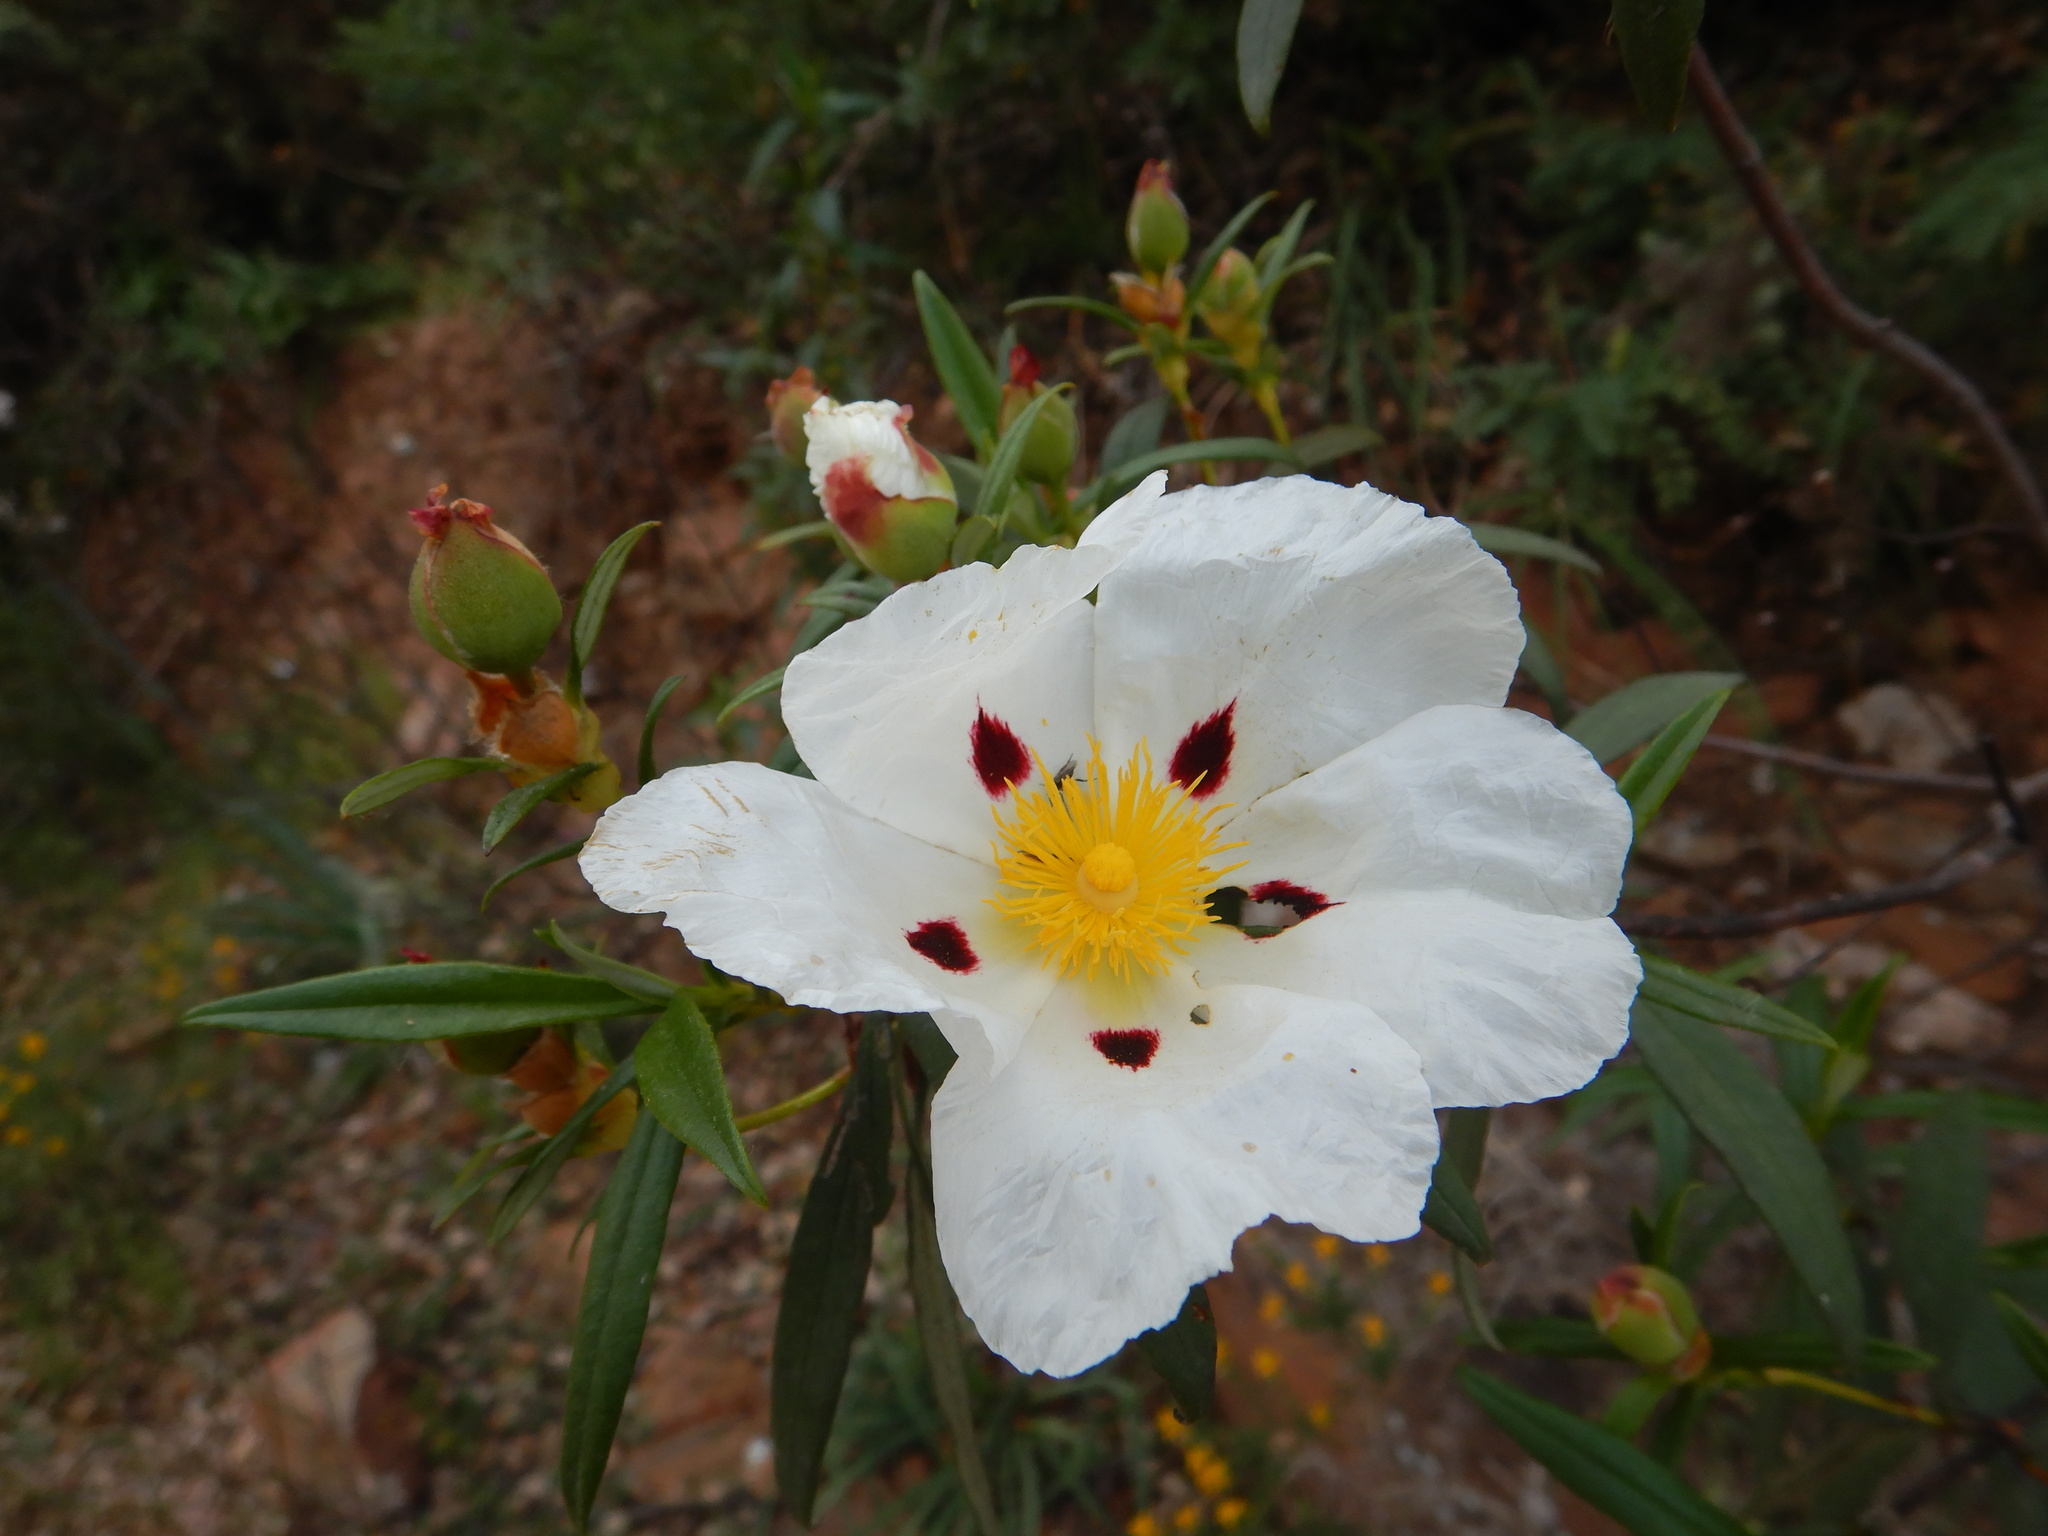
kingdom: Plantae
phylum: Tracheophyta
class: Magnoliopsida
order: Malvales
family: Cistaceae
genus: Cistus
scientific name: Cistus ladanifer
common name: Common gum cistus
